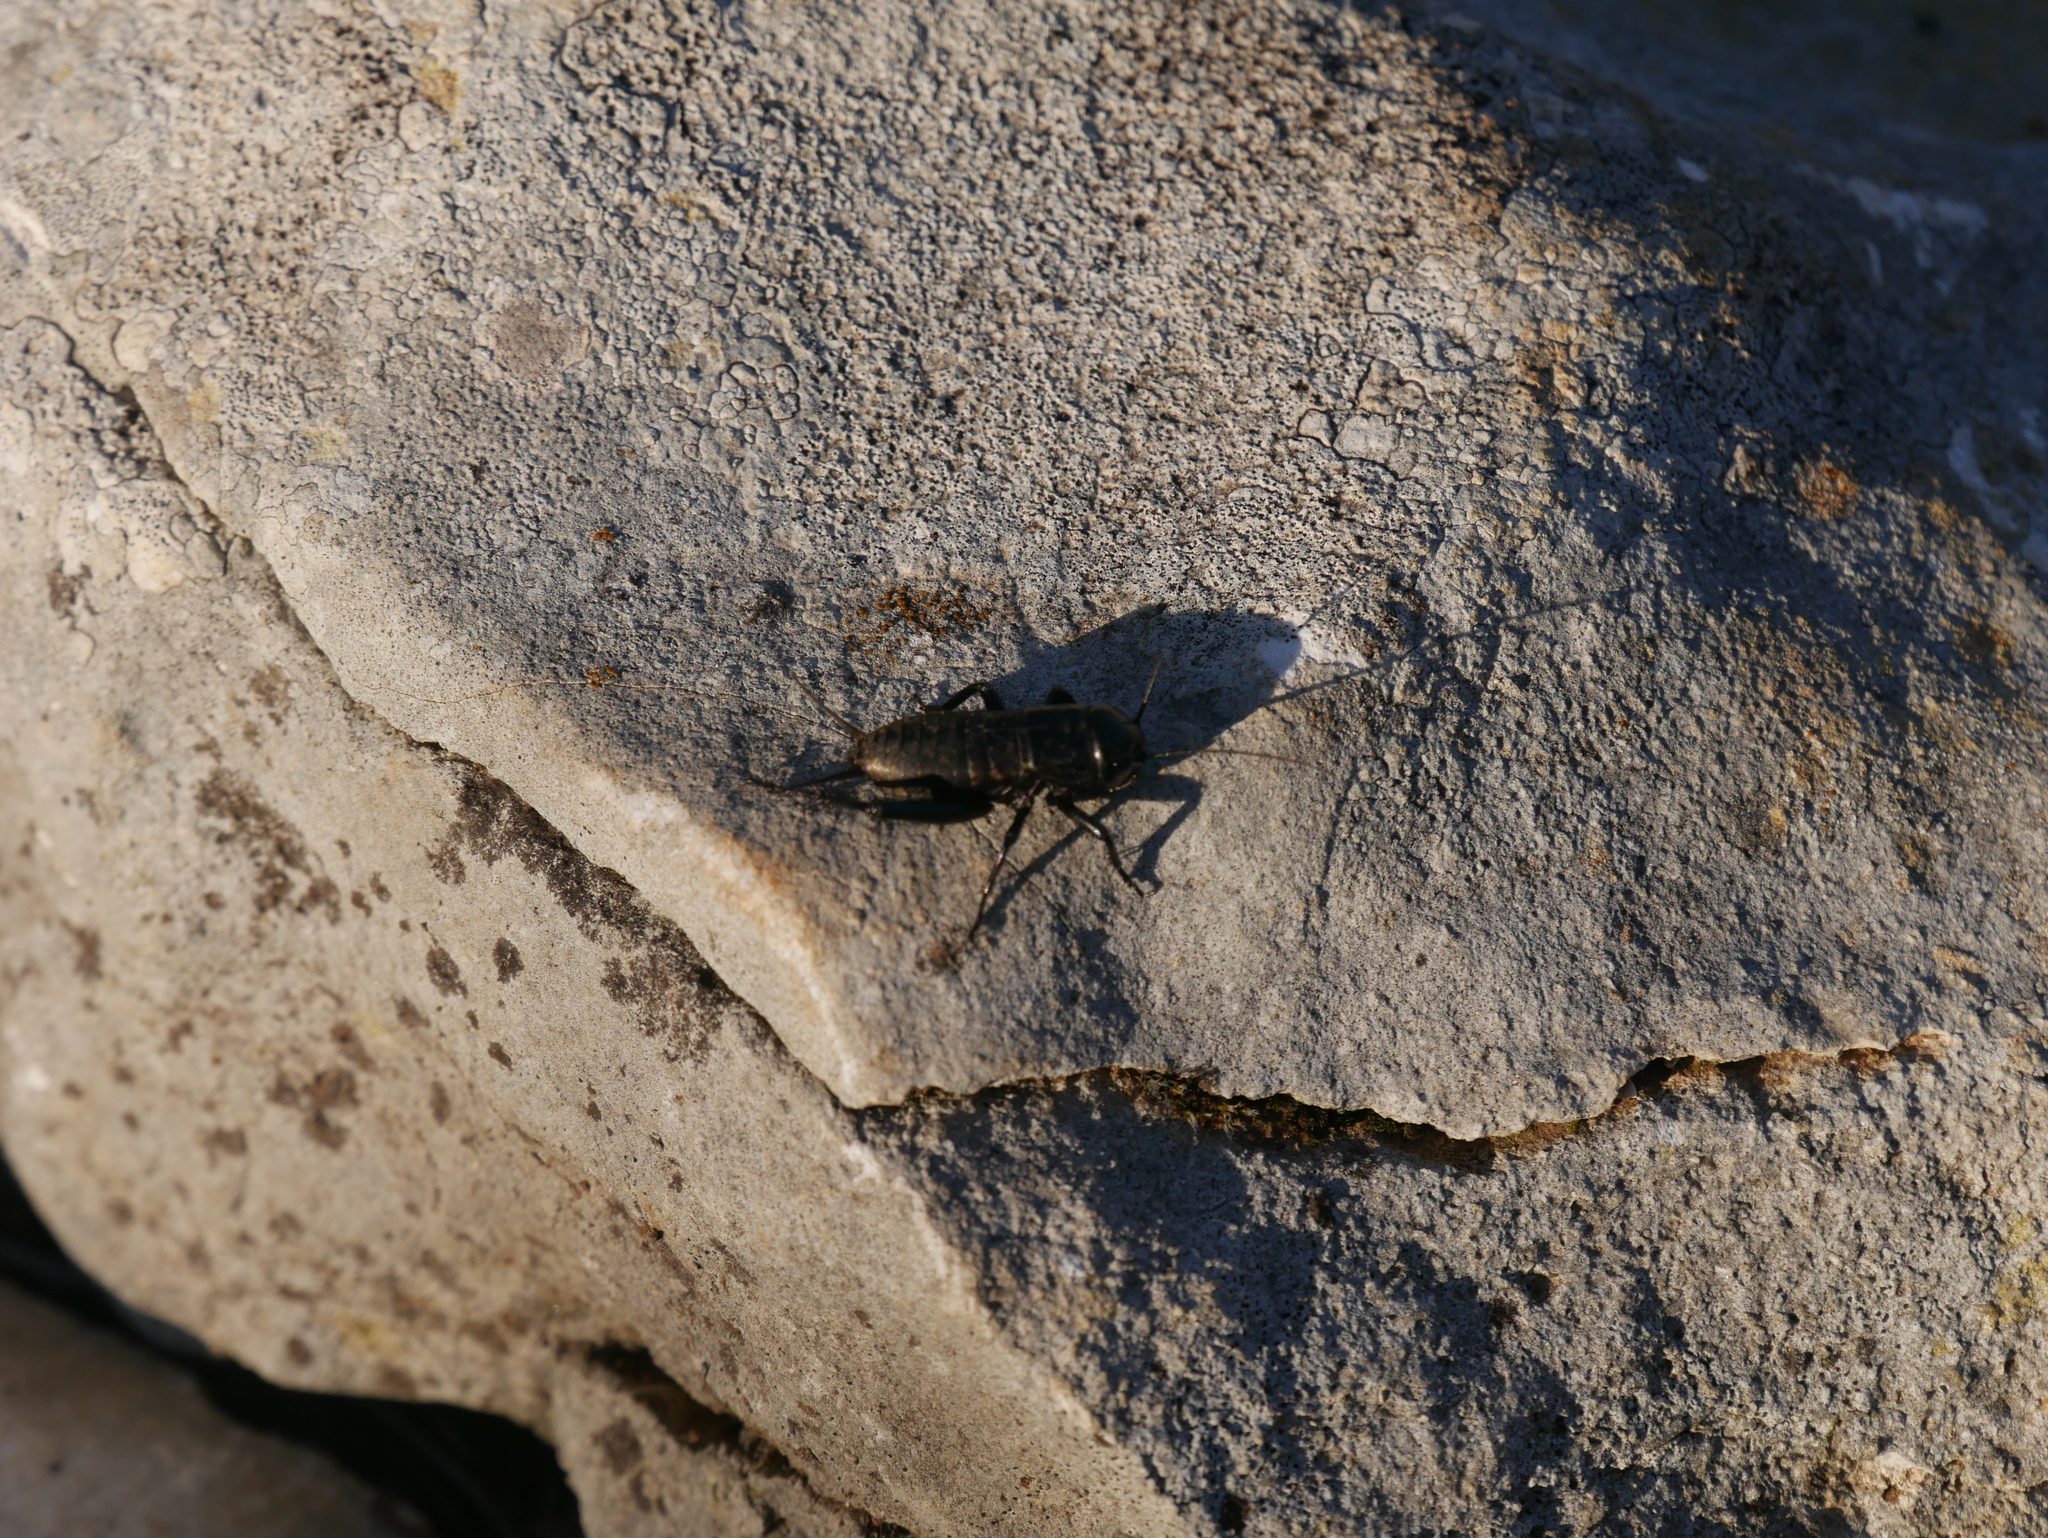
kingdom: Animalia
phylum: Arthropoda
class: Insecta
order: Orthoptera
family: Gryllidae
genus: Gryllus
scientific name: Gryllus campestris
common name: Field cricket
